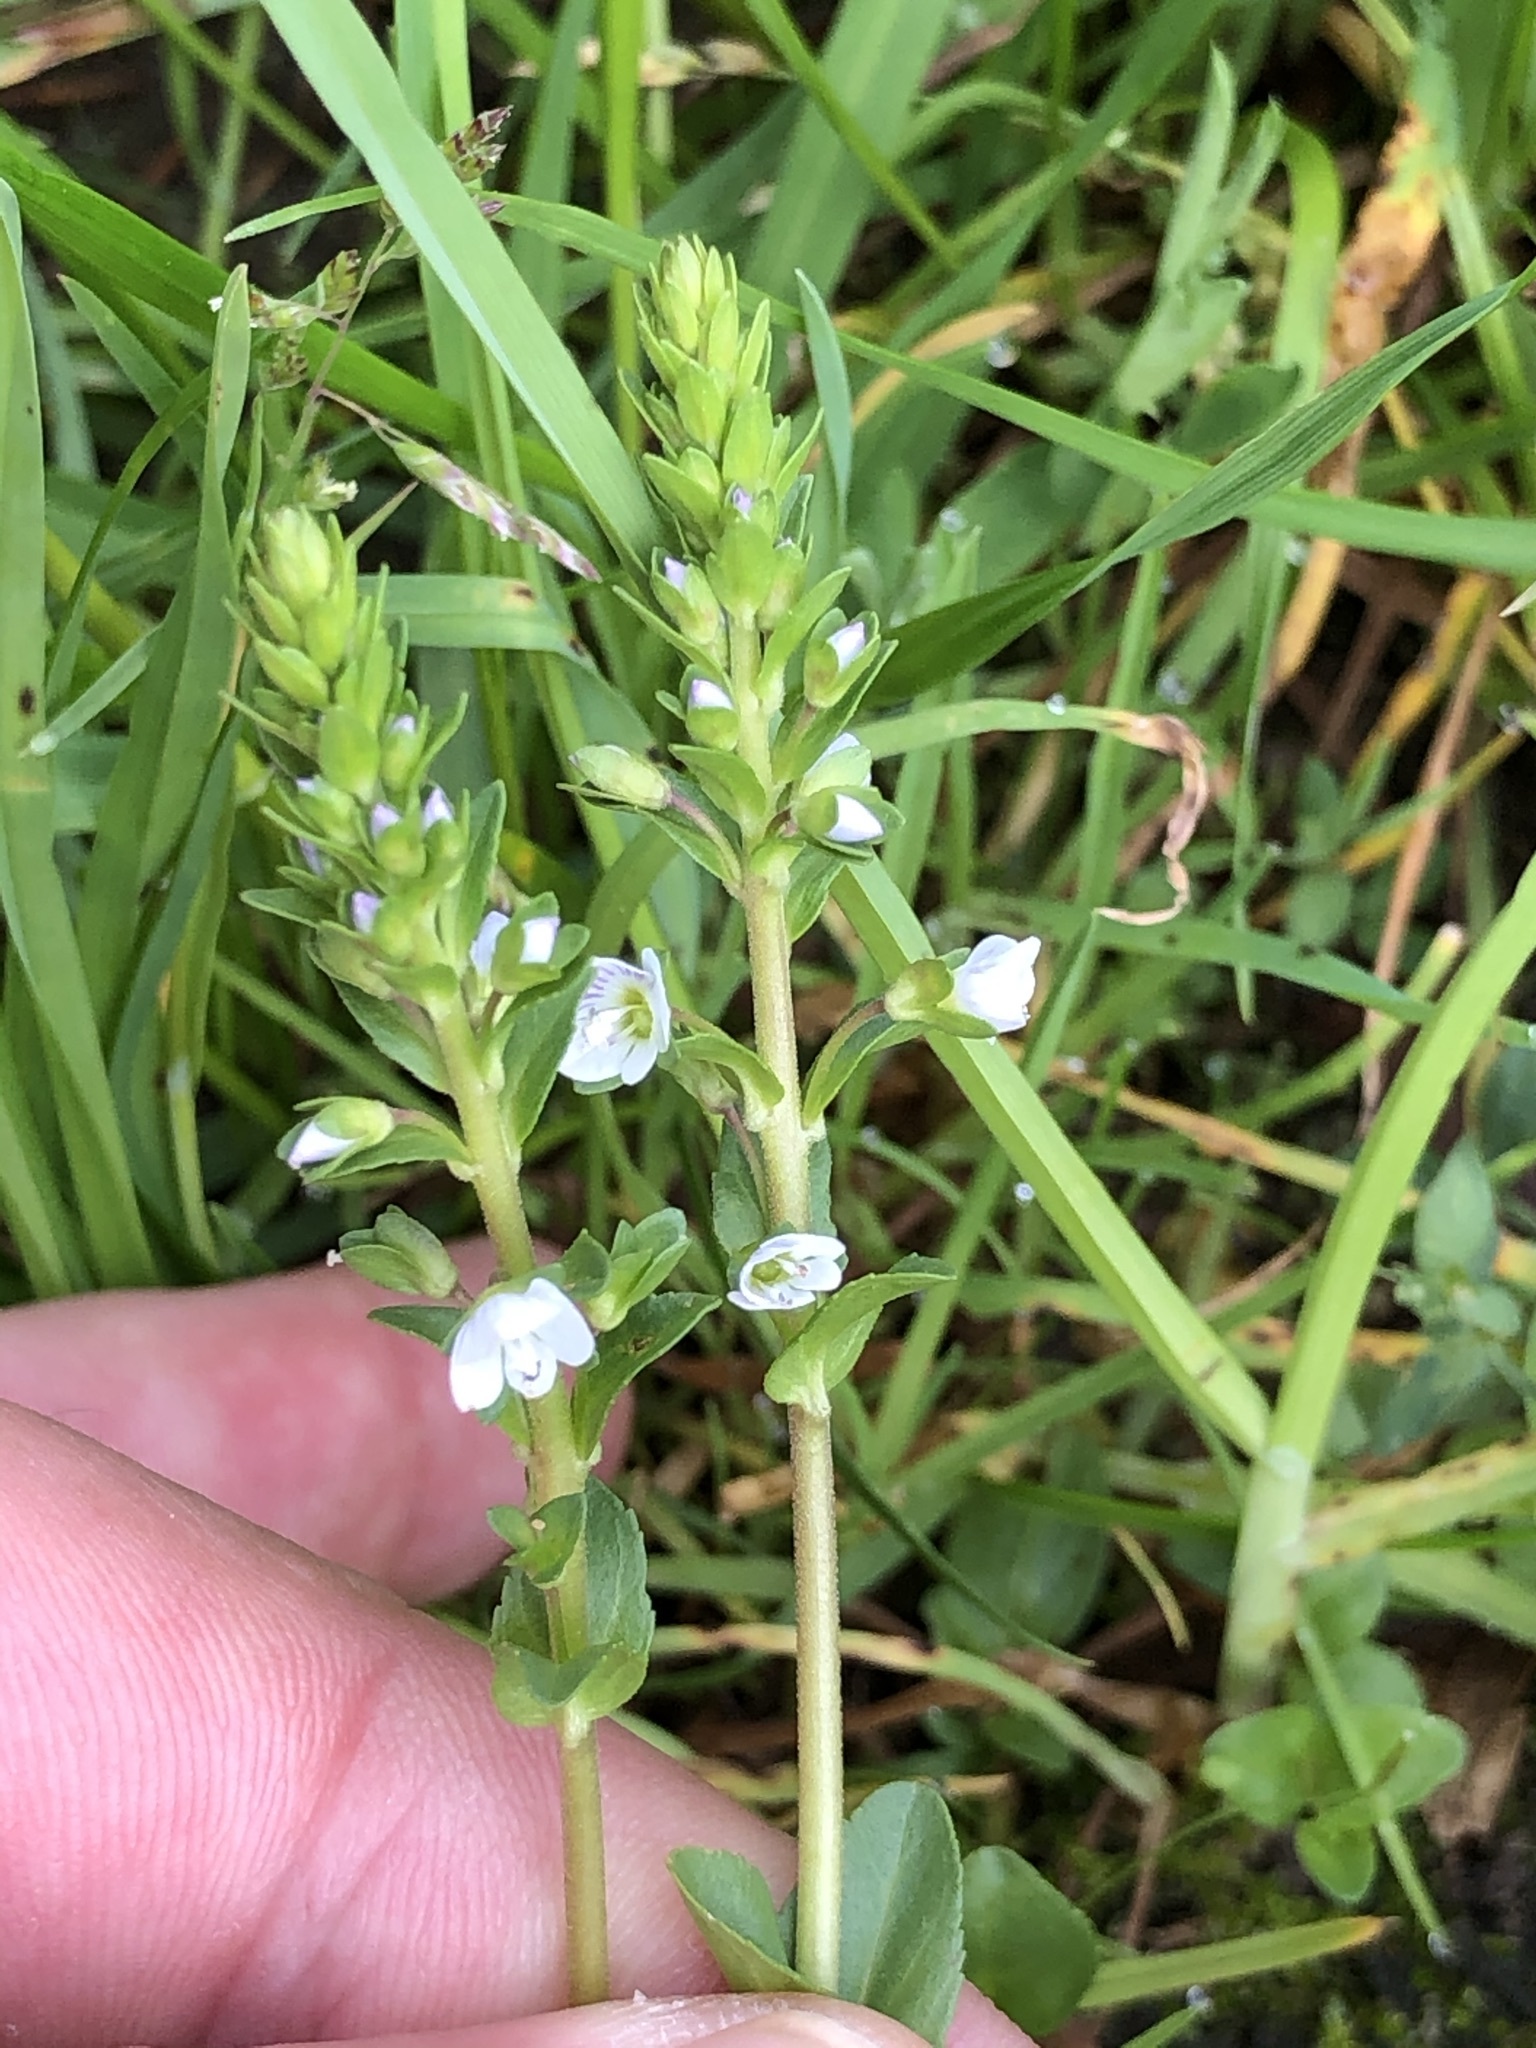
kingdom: Plantae
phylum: Tracheophyta
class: Magnoliopsida
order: Lamiales
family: Plantaginaceae
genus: Veronica
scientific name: Veronica serpyllifolia
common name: Thyme-leaved speedwell
